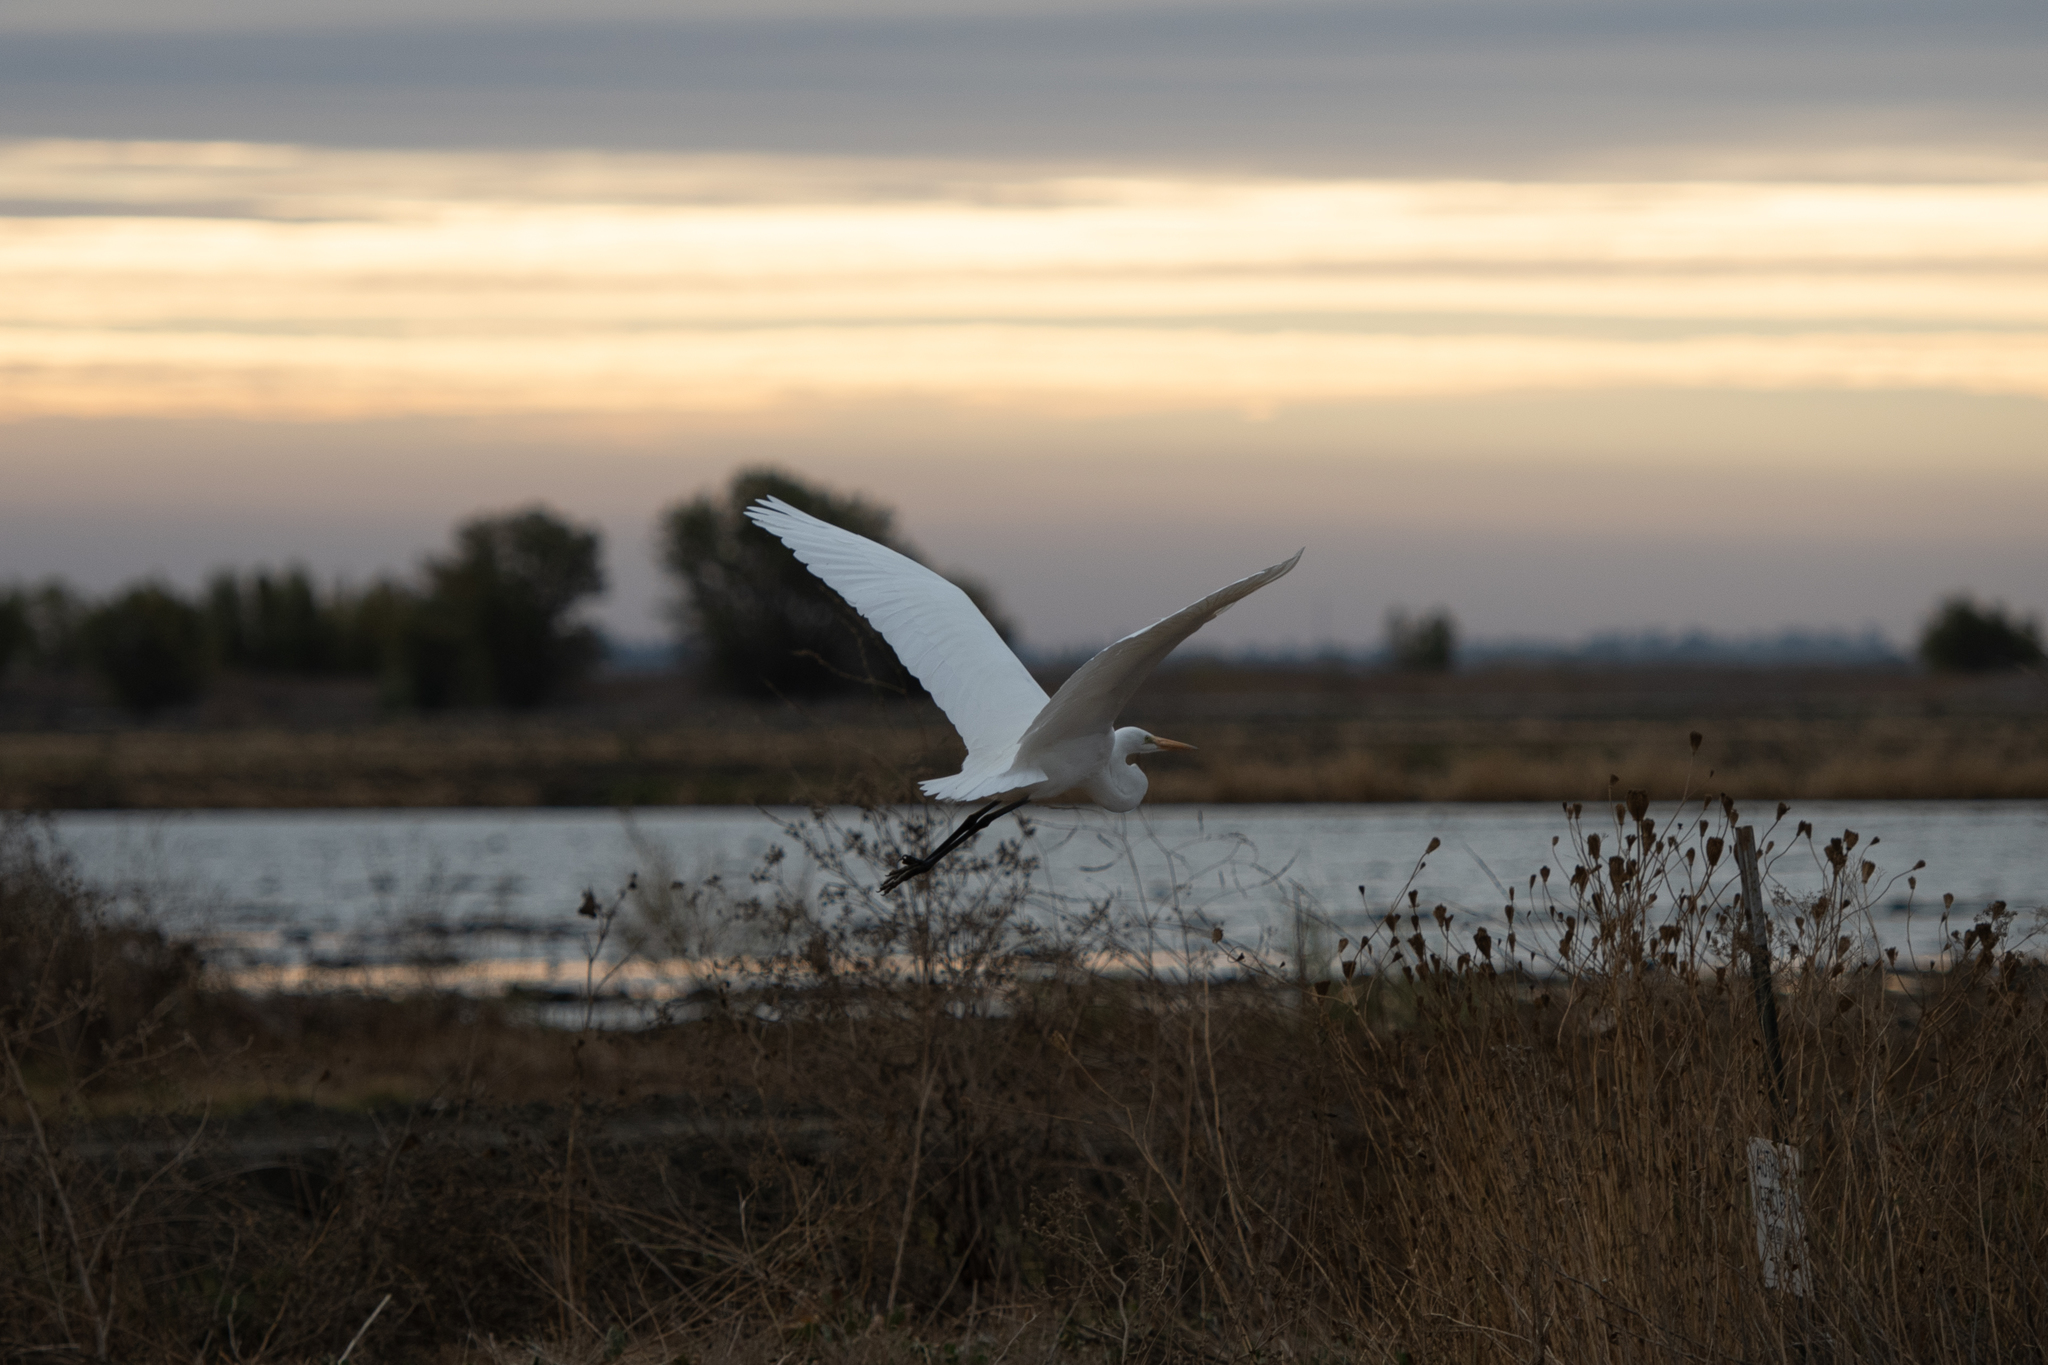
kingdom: Animalia
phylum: Chordata
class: Aves
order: Pelecaniformes
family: Ardeidae
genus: Ardea
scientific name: Ardea alba
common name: Great egret
